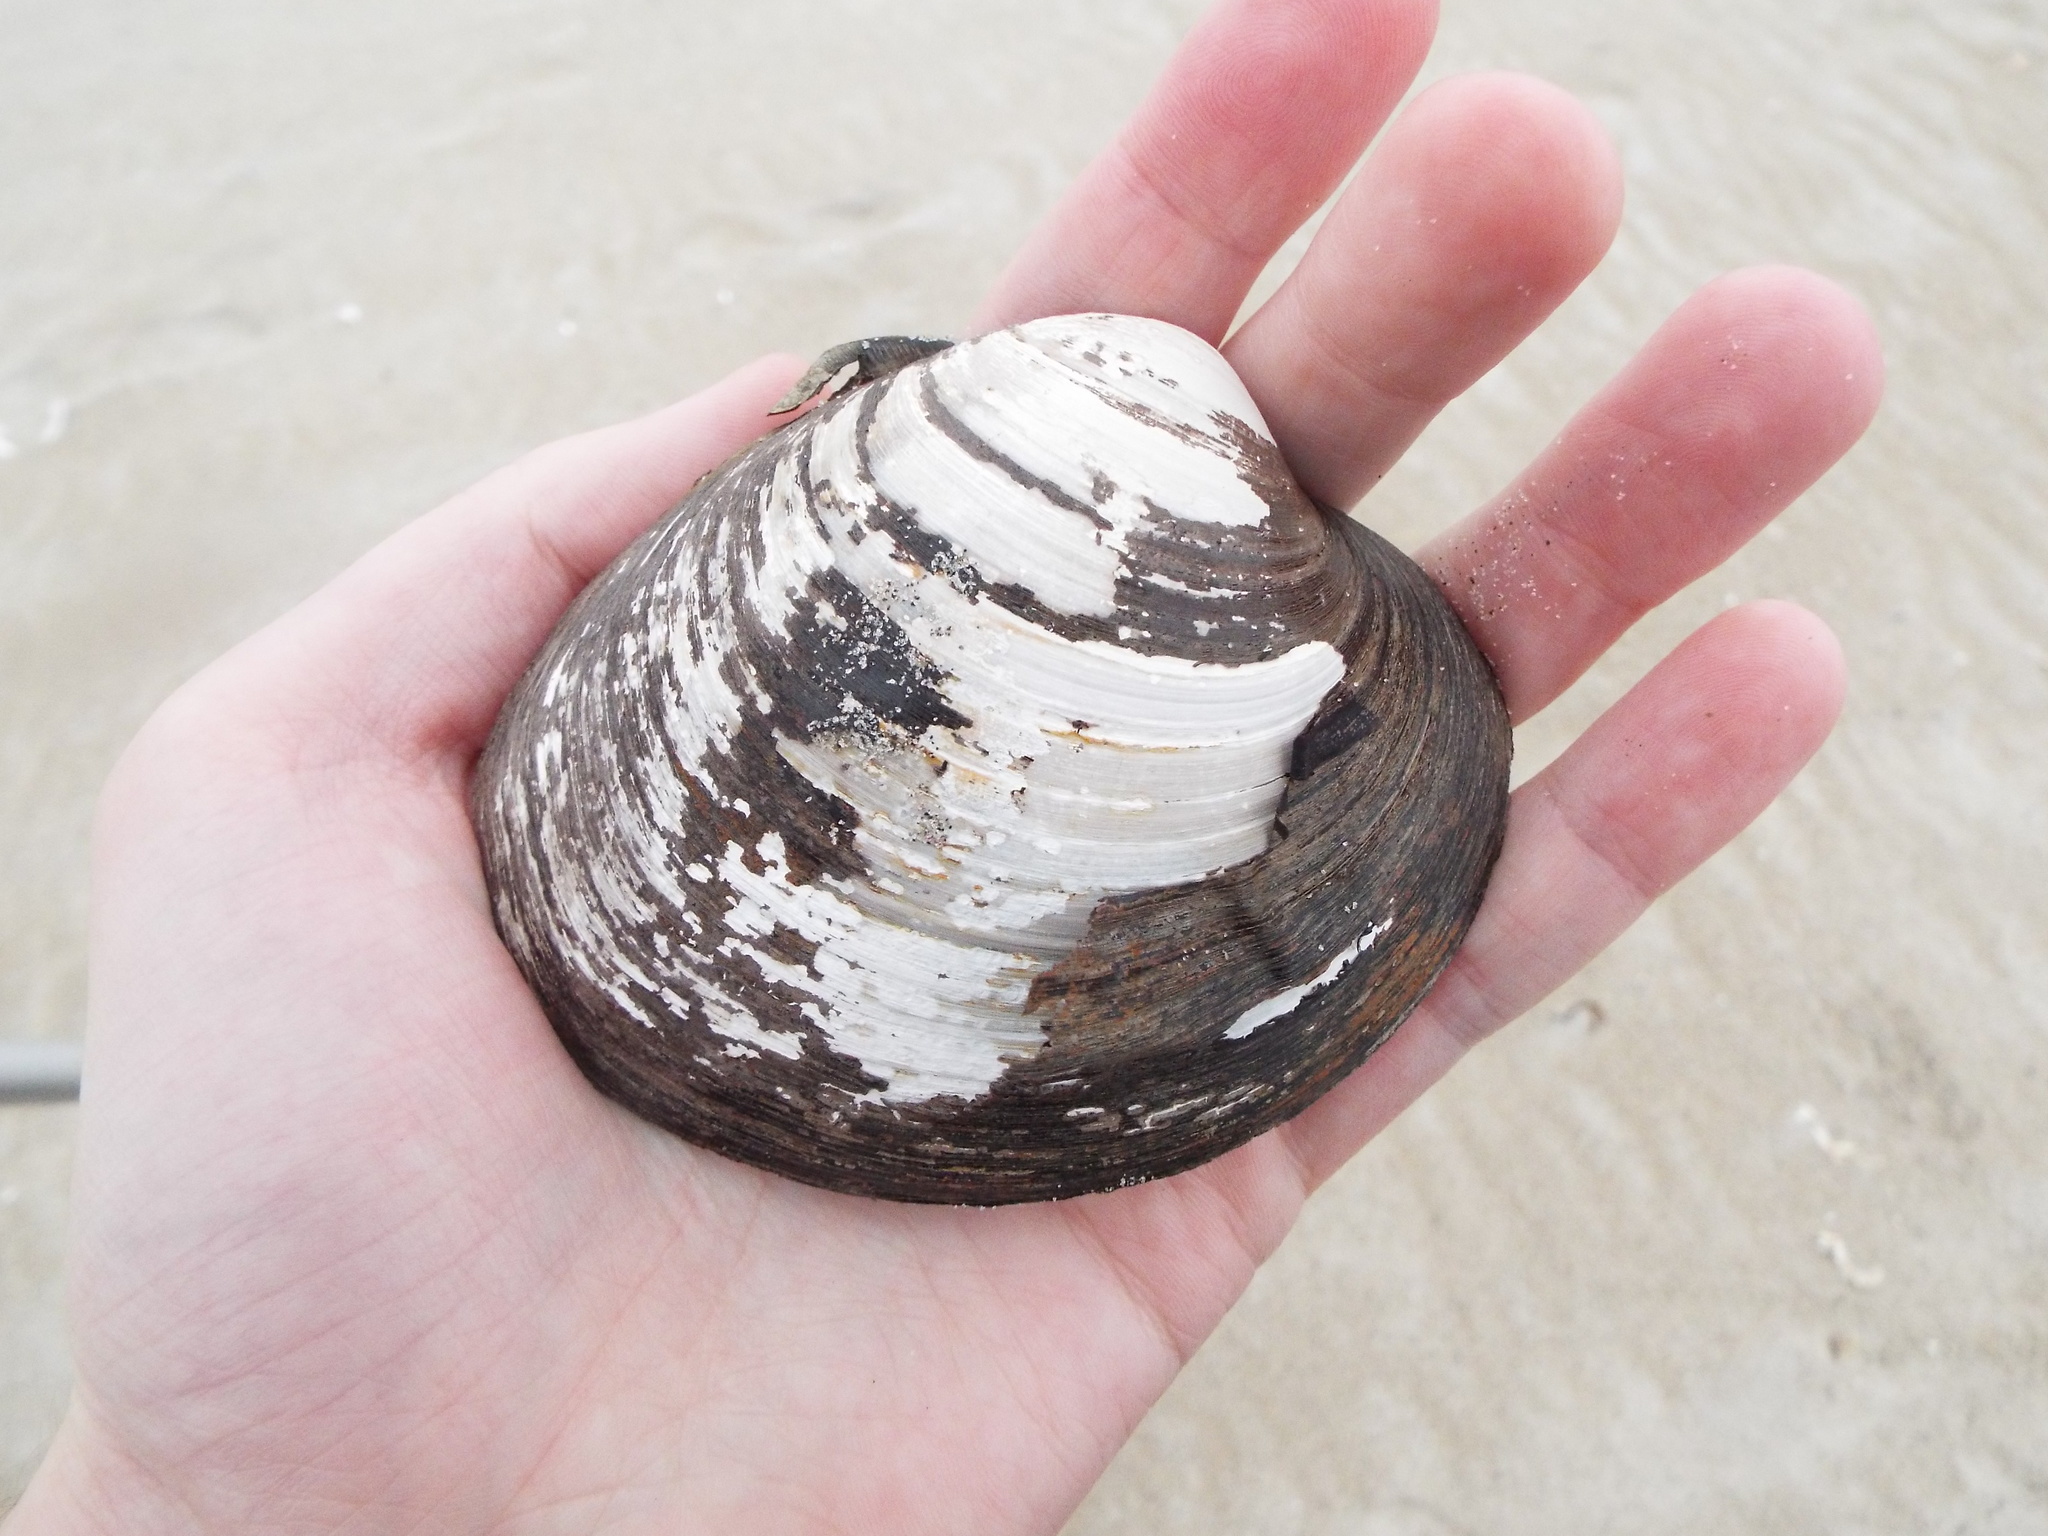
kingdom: Animalia
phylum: Mollusca
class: Bivalvia
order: Venerida
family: Arcticidae
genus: Arctica
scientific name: Arctica islandica
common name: Icelandic cyprine
